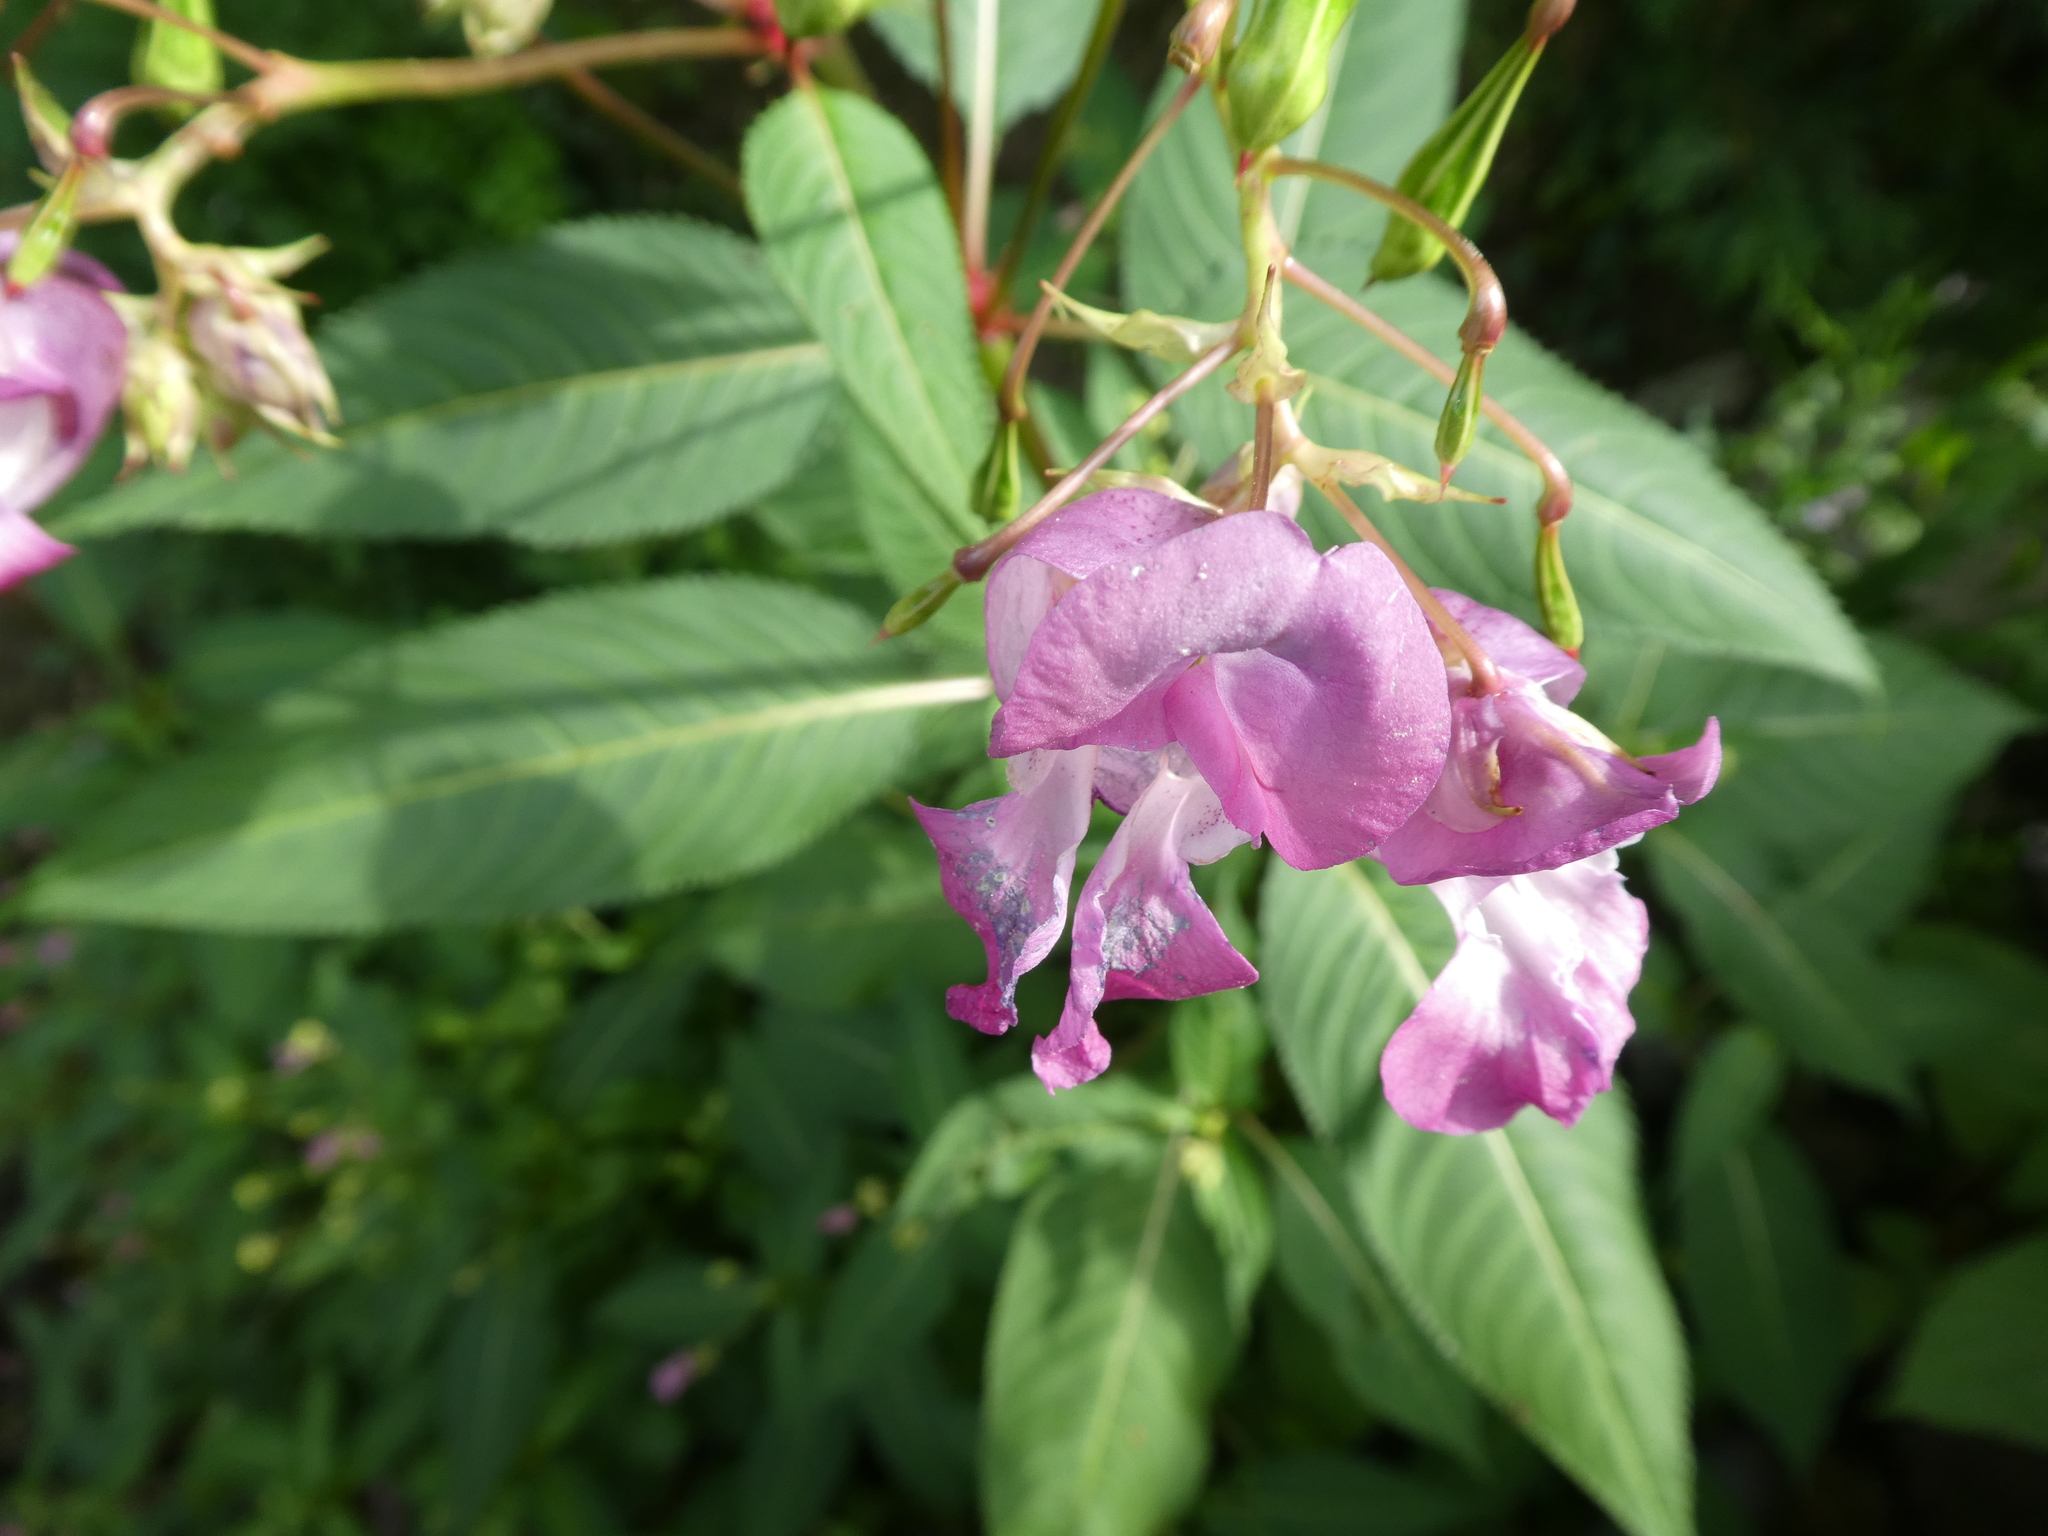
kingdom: Plantae
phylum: Tracheophyta
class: Magnoliopsida
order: Ericales
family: Balsaminaceae
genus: Impatiens
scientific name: Impatiens glandulifera
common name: Himalayan balsam
